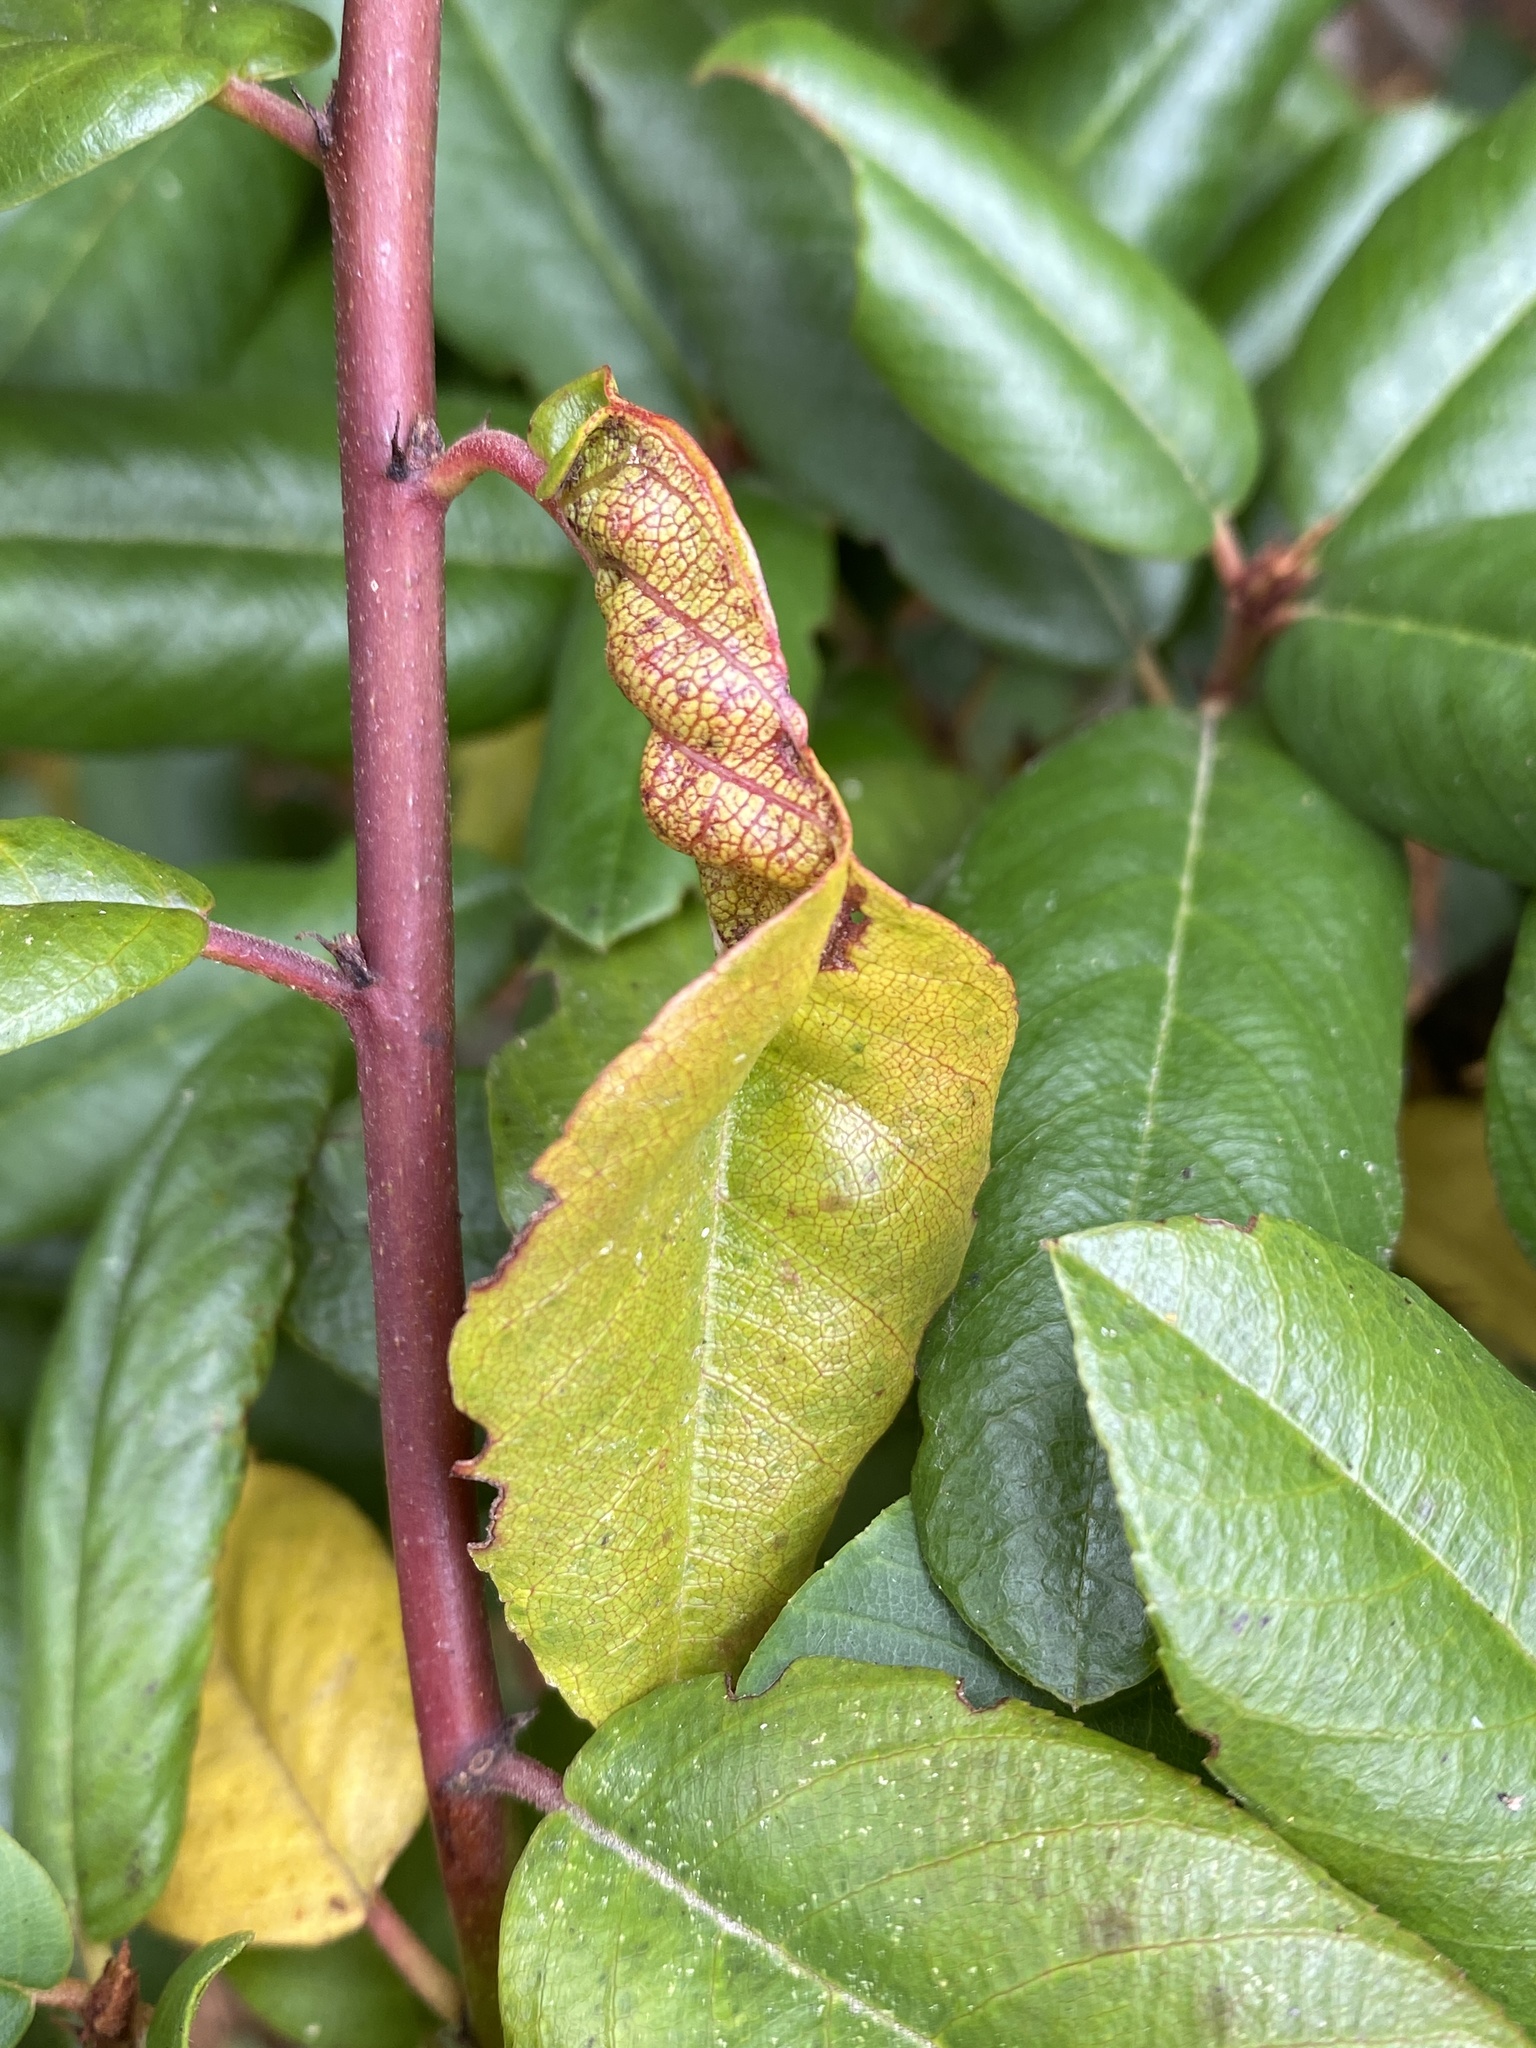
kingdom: Animalia
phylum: Arthropoda
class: Insecta
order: Lepidoptera
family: Cosmopterigidae
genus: Sorhagenia
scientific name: Sorhagenia nimbosus
